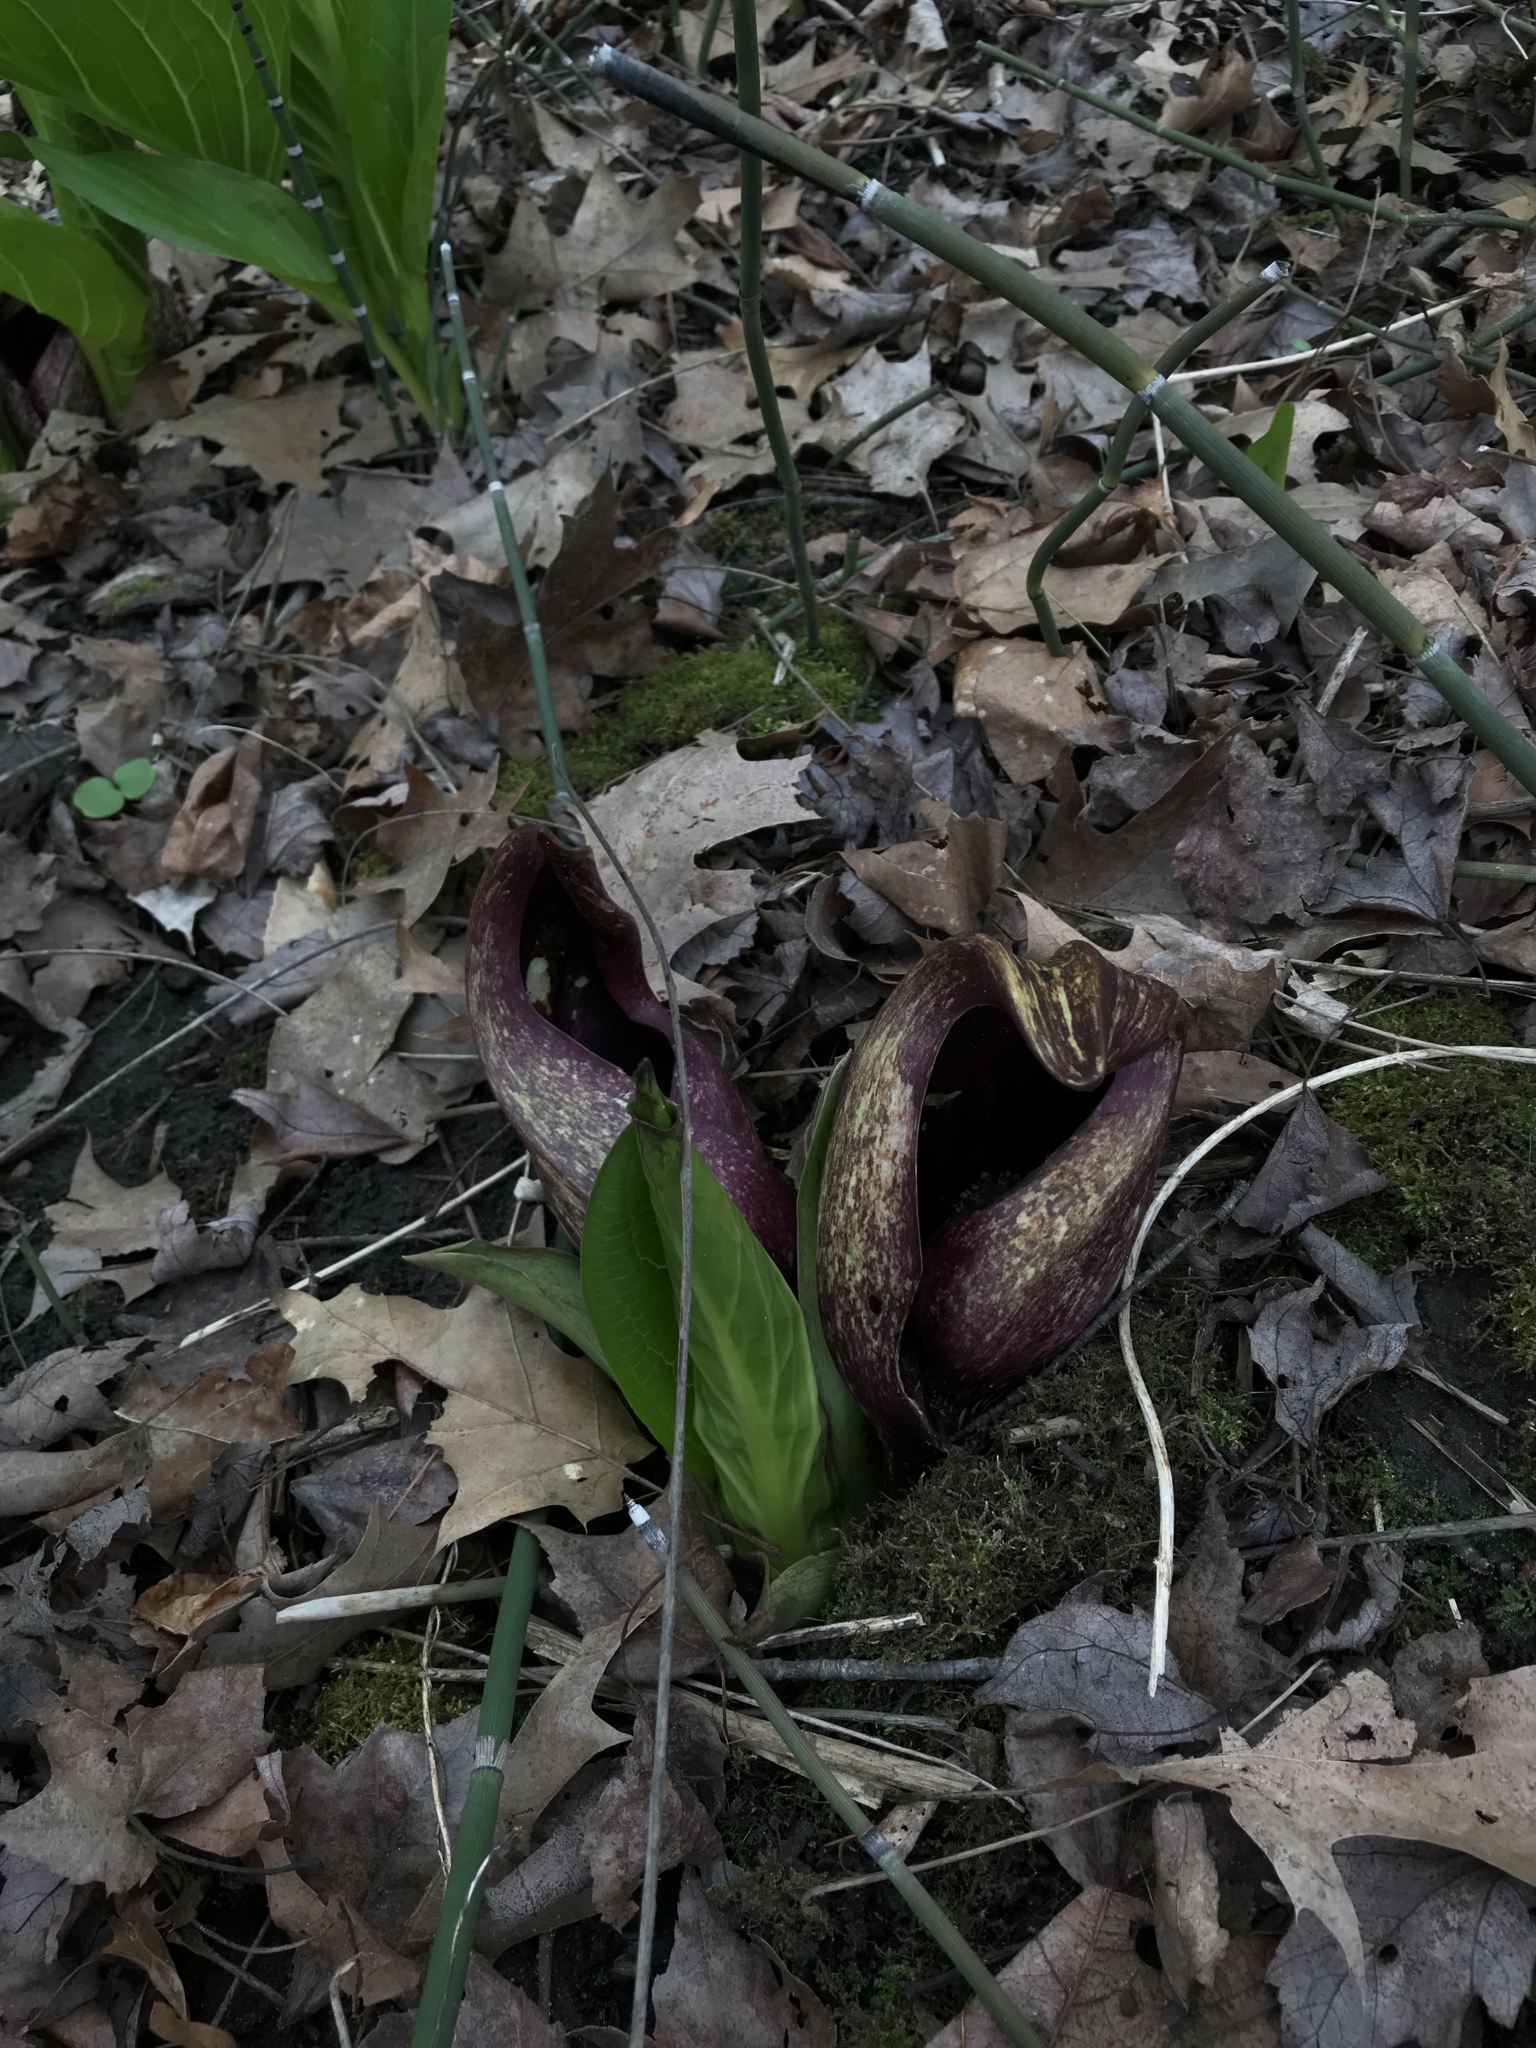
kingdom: Plantae
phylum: Tracheophyta
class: Liliopsida
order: Alismatales
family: Araceae
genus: Symplocarpus
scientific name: Symplocarpus foetidus
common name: Eastern skunk cabbage
